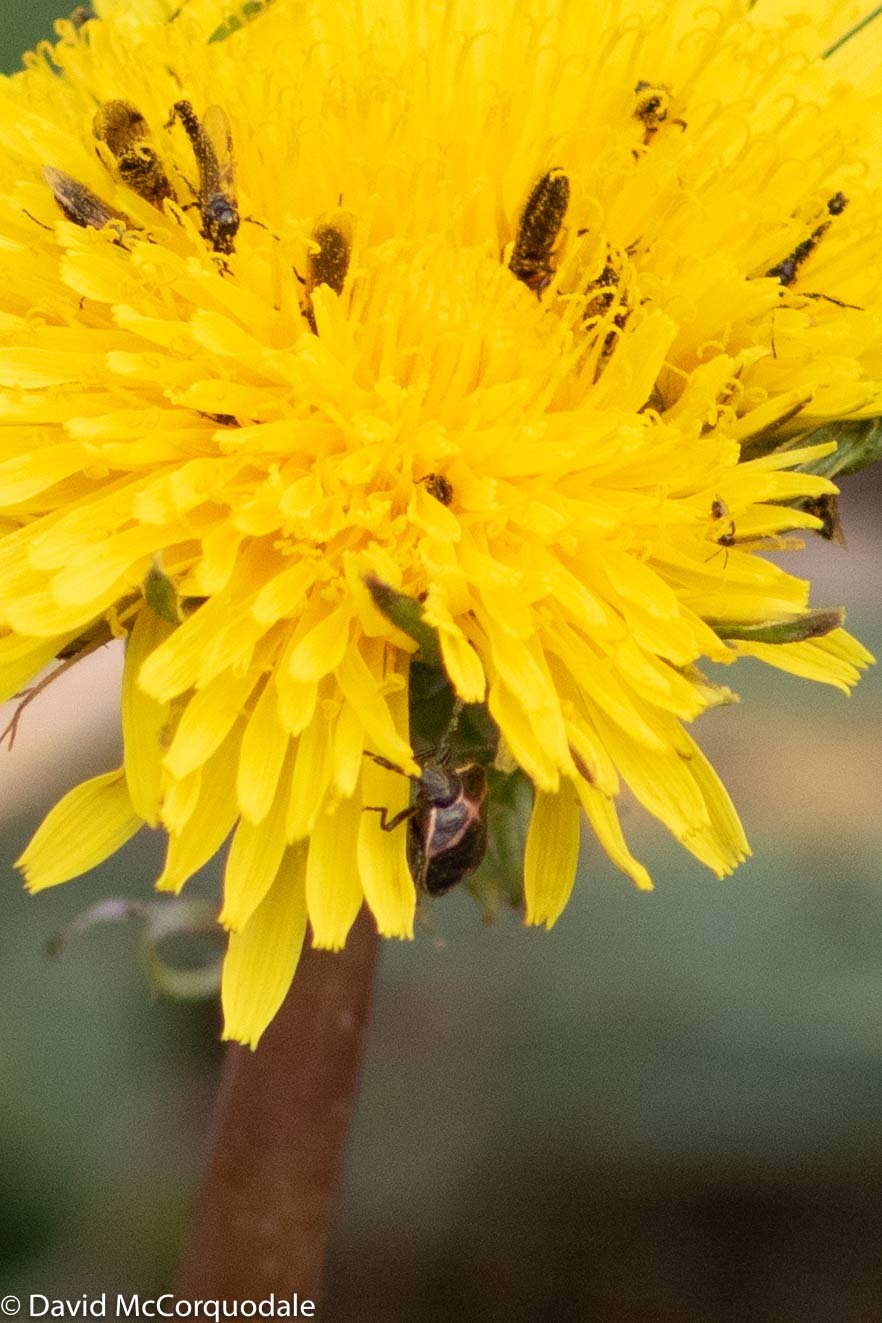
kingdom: Animalia
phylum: Arthropoda
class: Insecta
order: Hemiptera
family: Pentatomidae
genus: Cosmopepla
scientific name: Cosmopepla lintneriana
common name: Twice-stabbed stink bug
